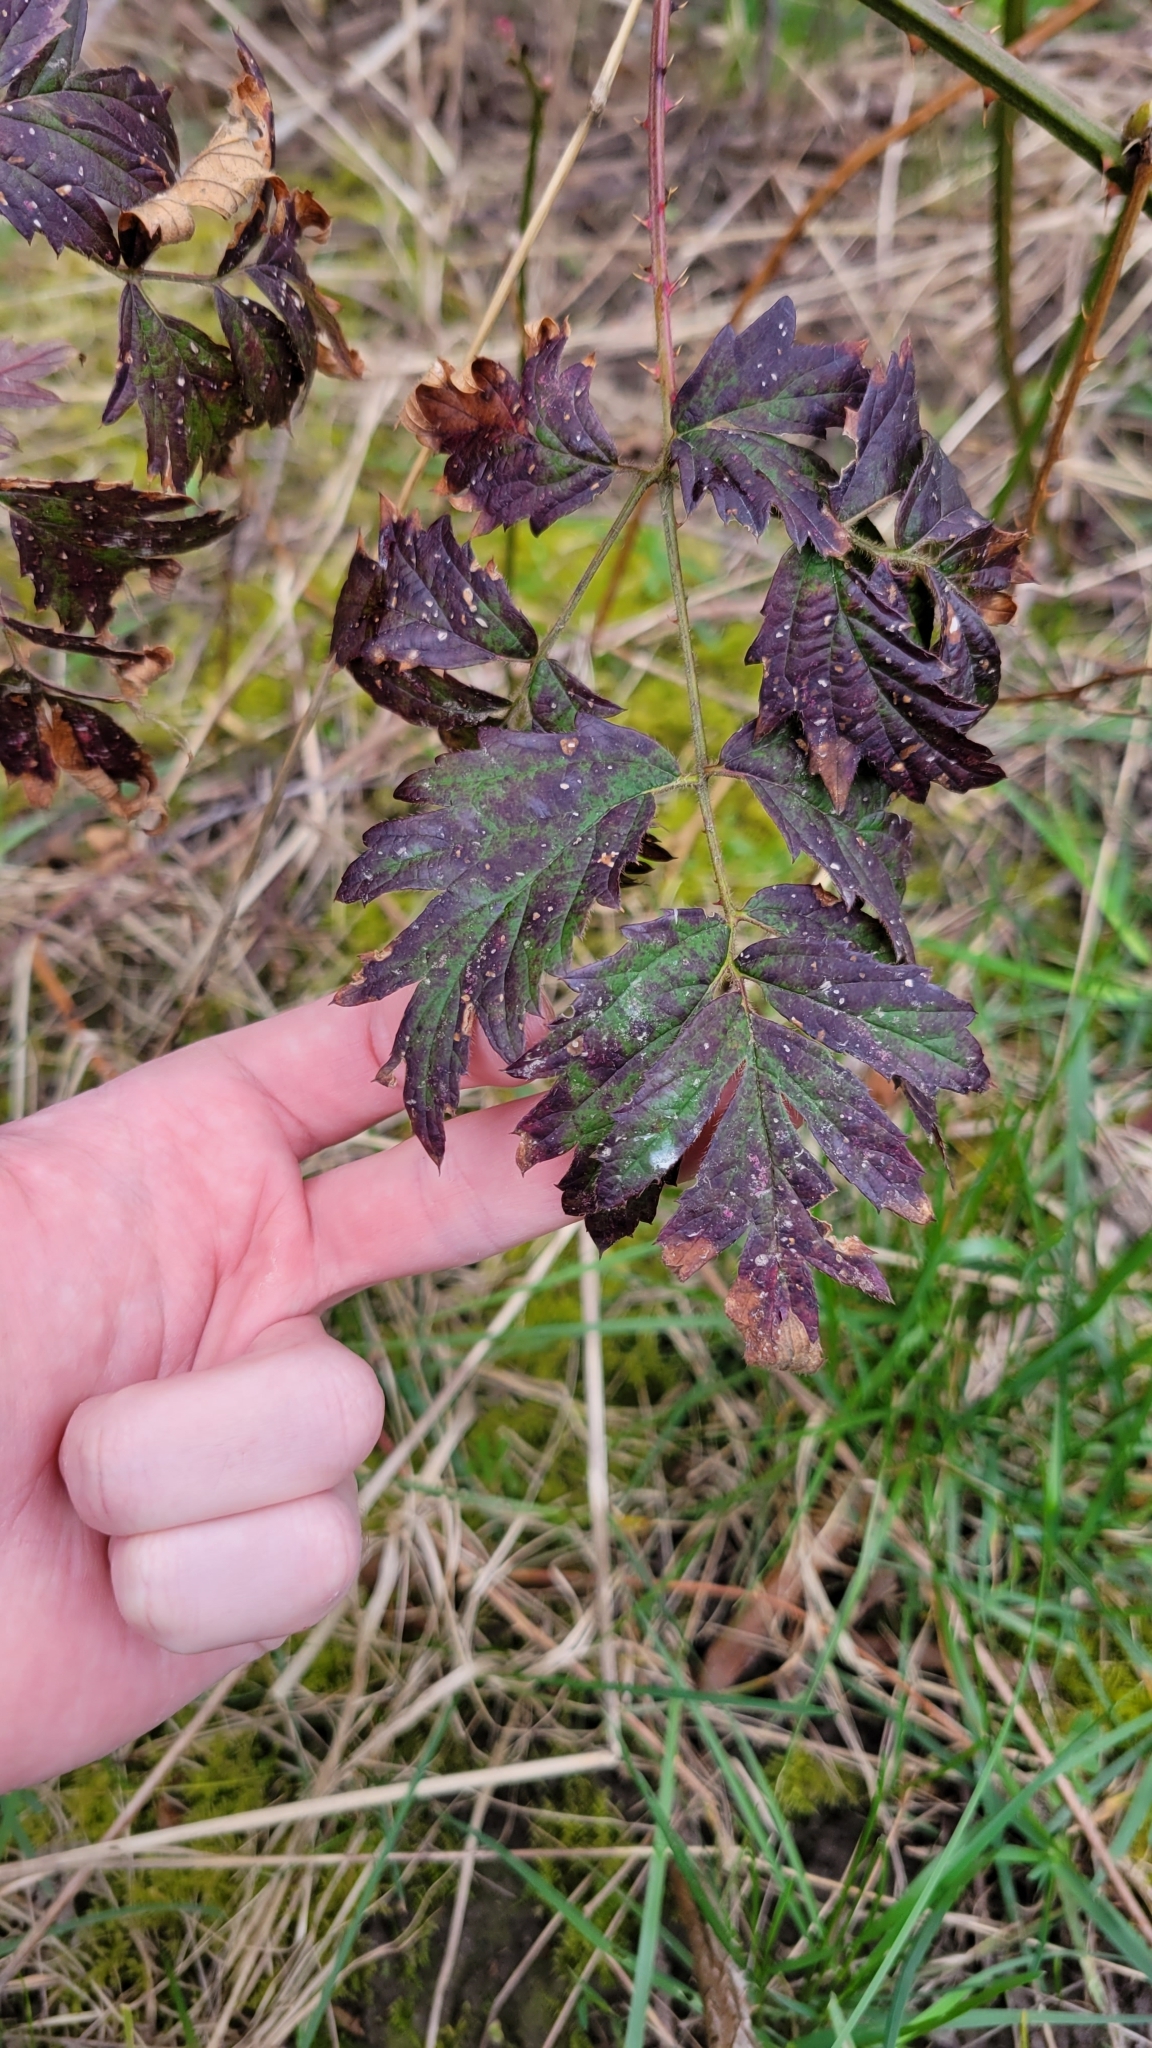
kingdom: Plantae
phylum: Tracheophyta
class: Magnoliopsida
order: Rosales
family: Rosaceae
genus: Rubus
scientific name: Rubus laciniatus
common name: Evergreen blackberry
